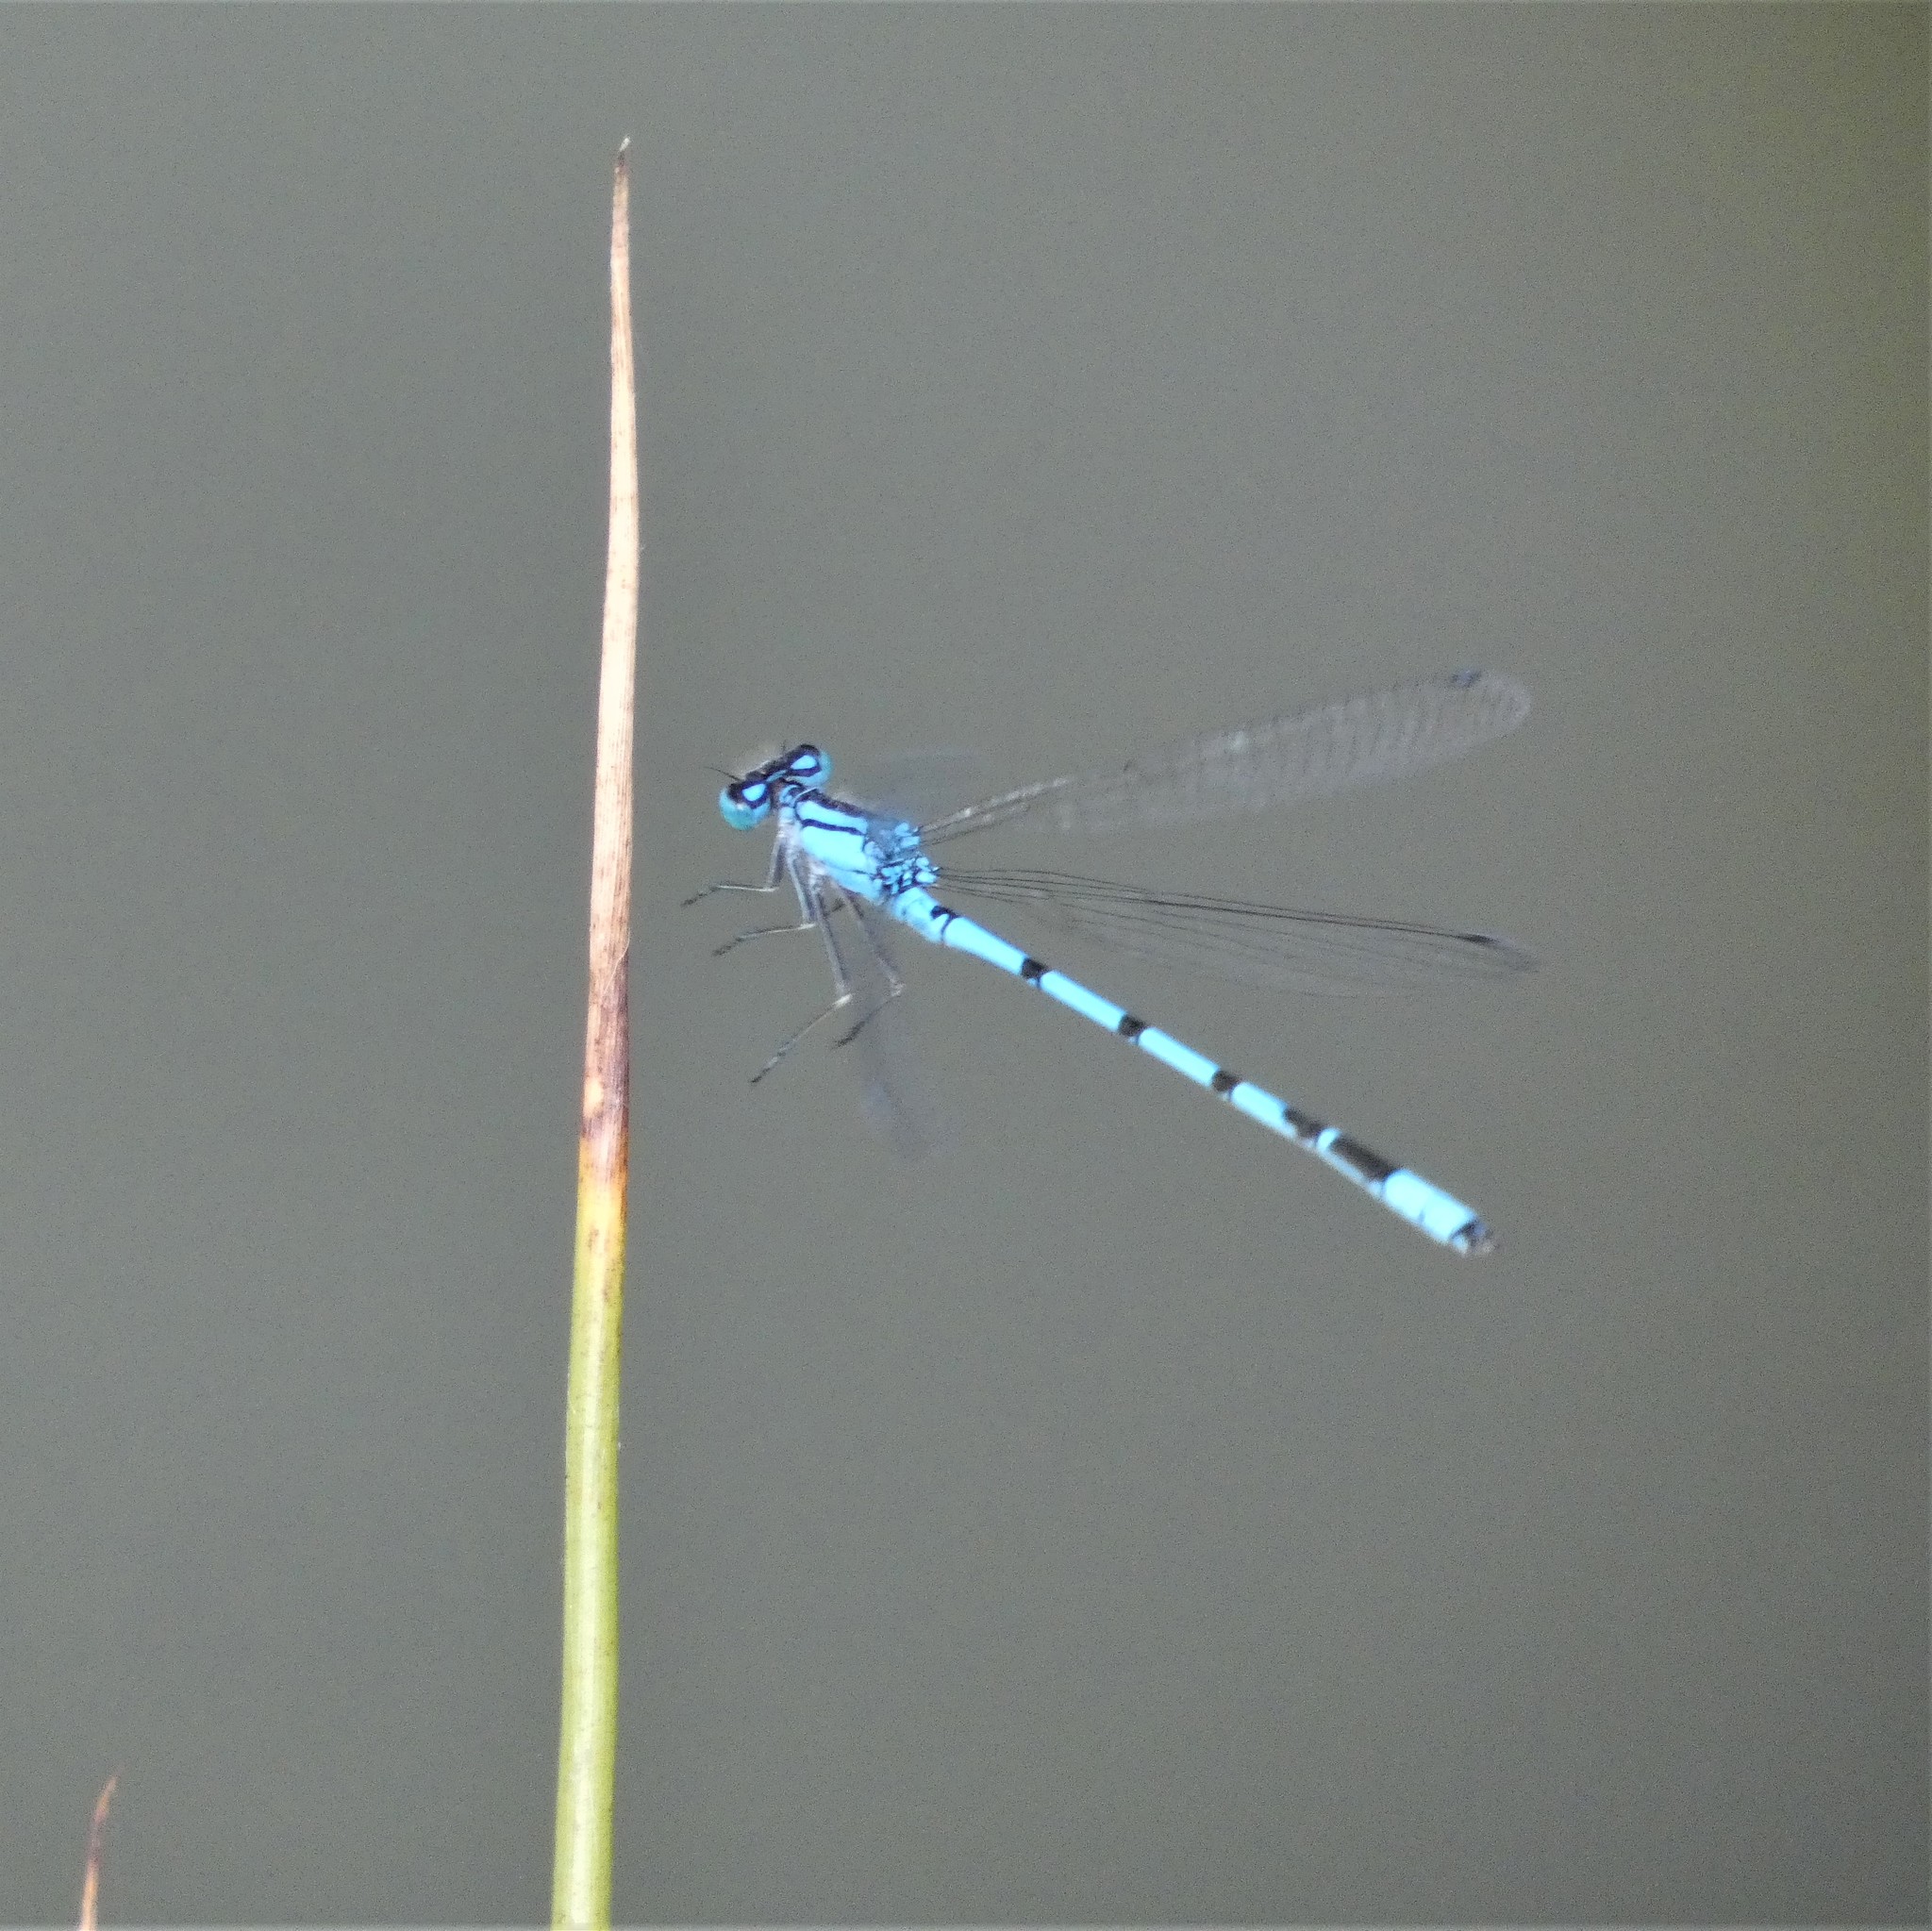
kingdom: Animalia
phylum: Arthropoda
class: Insecta
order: Odonata
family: Coenagrionidae
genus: Enallagma
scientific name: Enallagma cyathigerum
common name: Common blue damselfly
